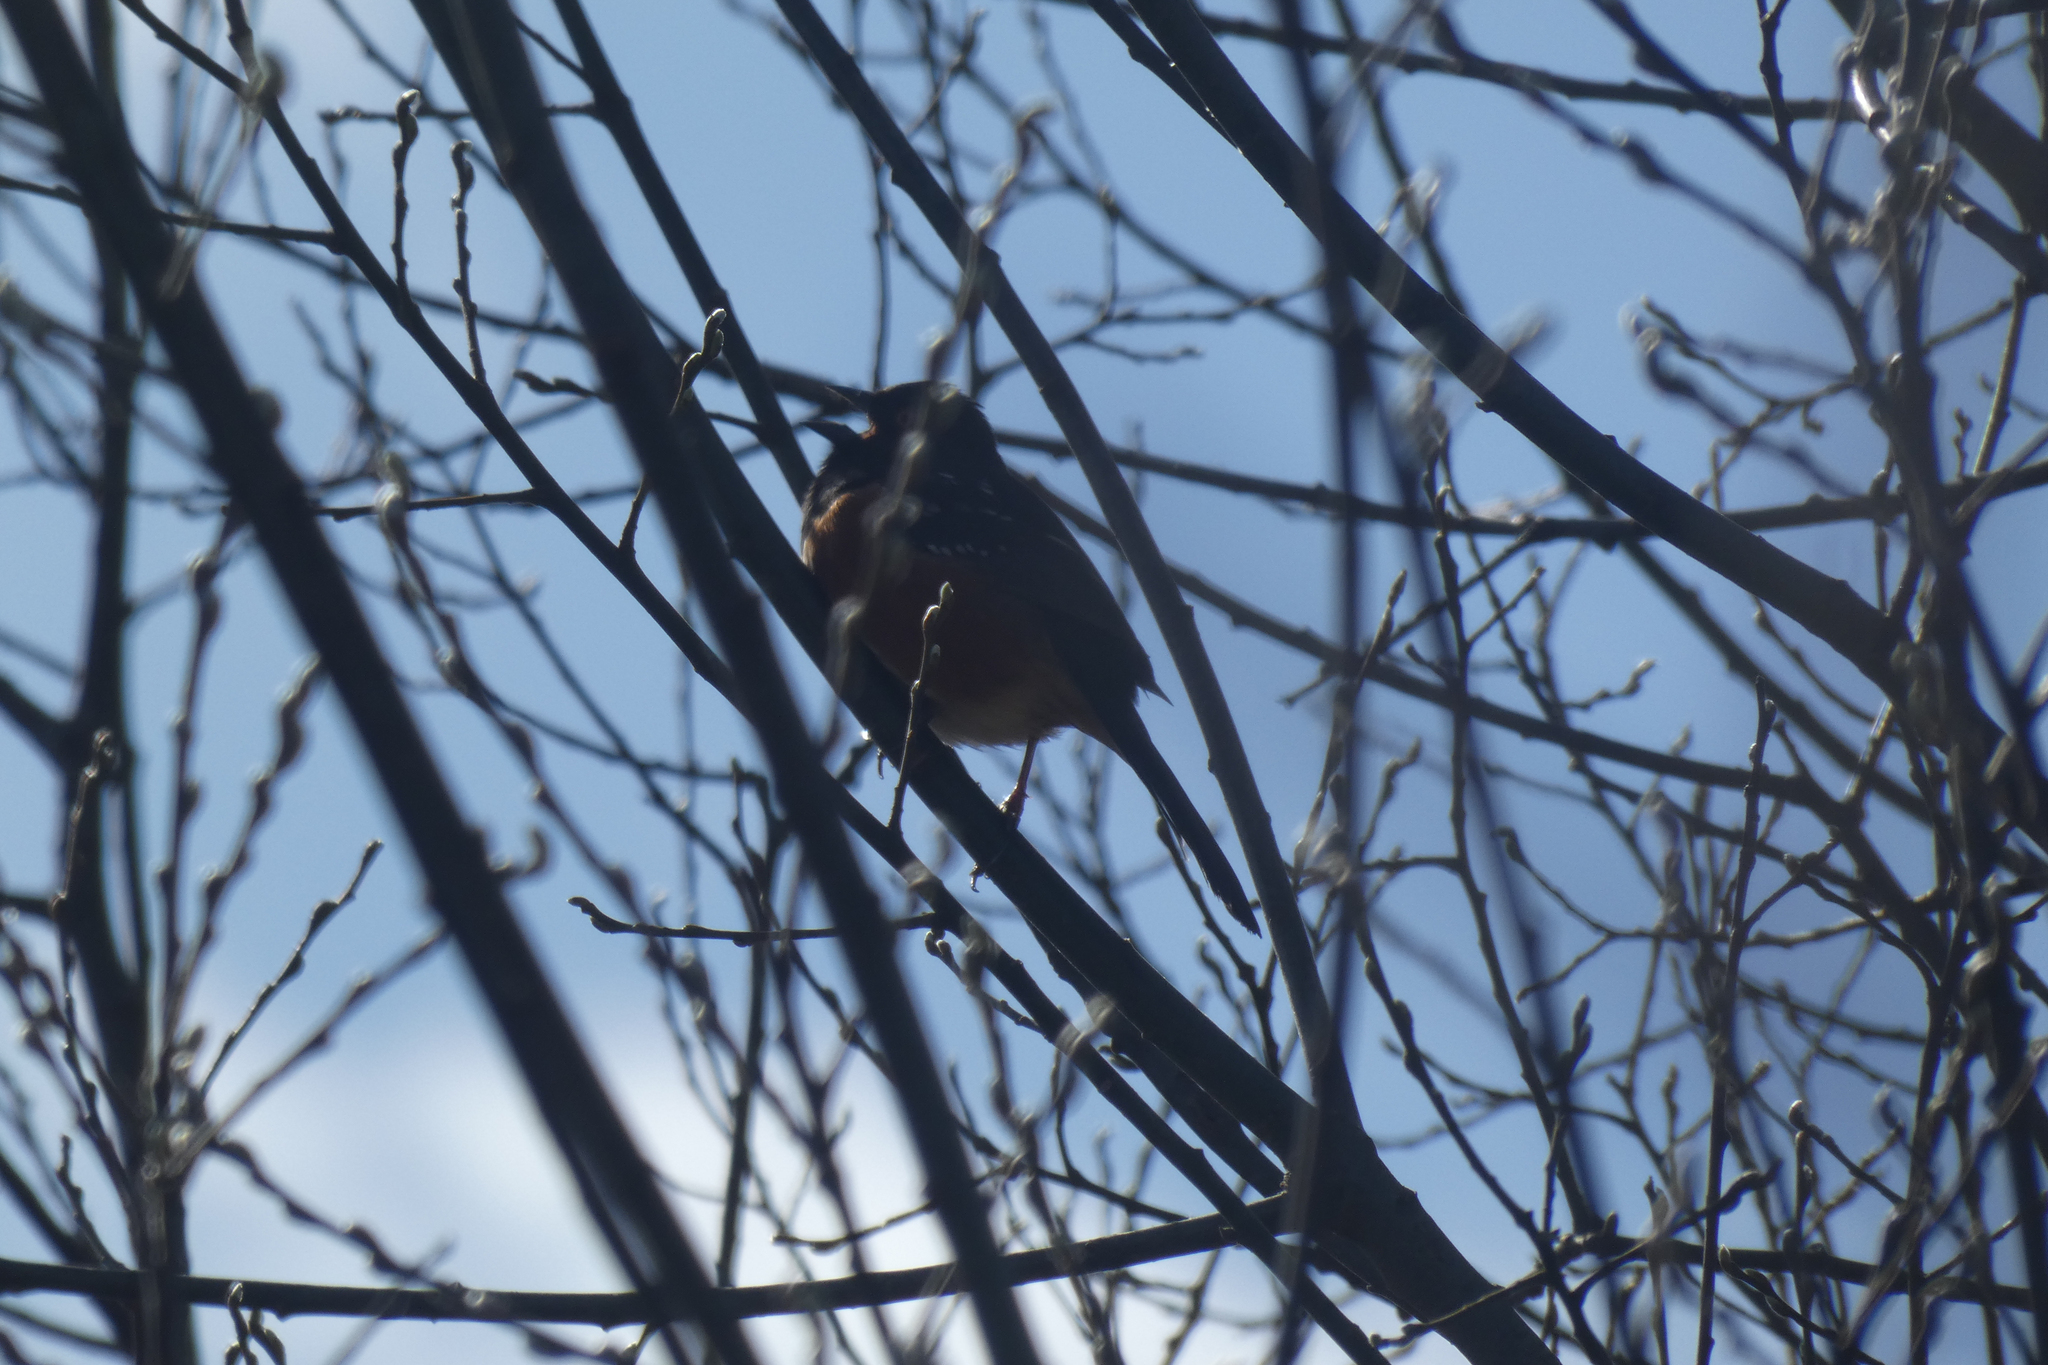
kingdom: Animalia
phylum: Chordata
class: Aves
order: Passeriformes
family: Passerellidae
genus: Pipilo
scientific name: Pipilo maculatus
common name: Spotted towhee
